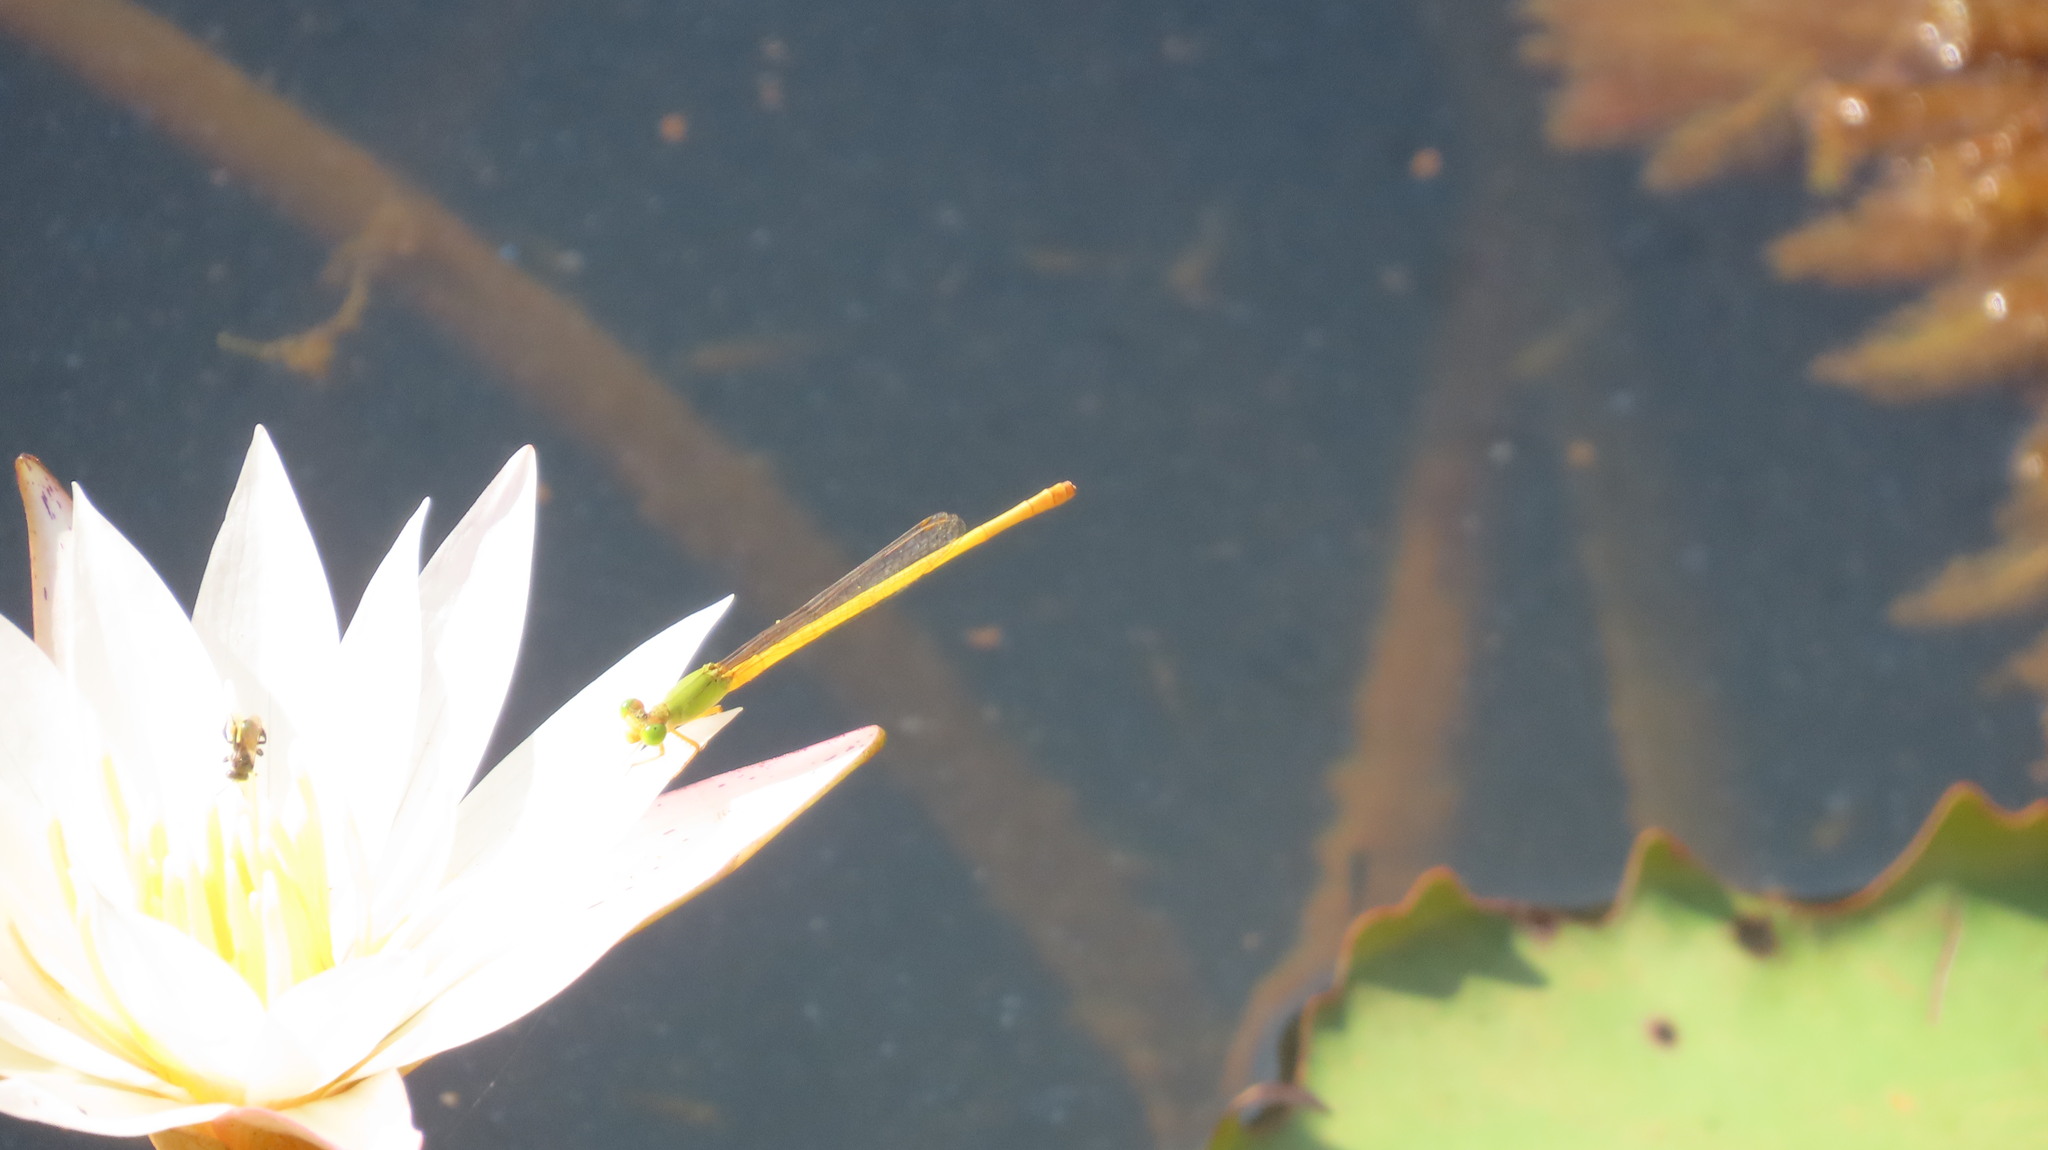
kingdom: Animalia
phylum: Arthropoda
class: Insecta
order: Odonata
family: Coenagrionidae
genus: Ceriagrion
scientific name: Ceriagrion coromandelianum
